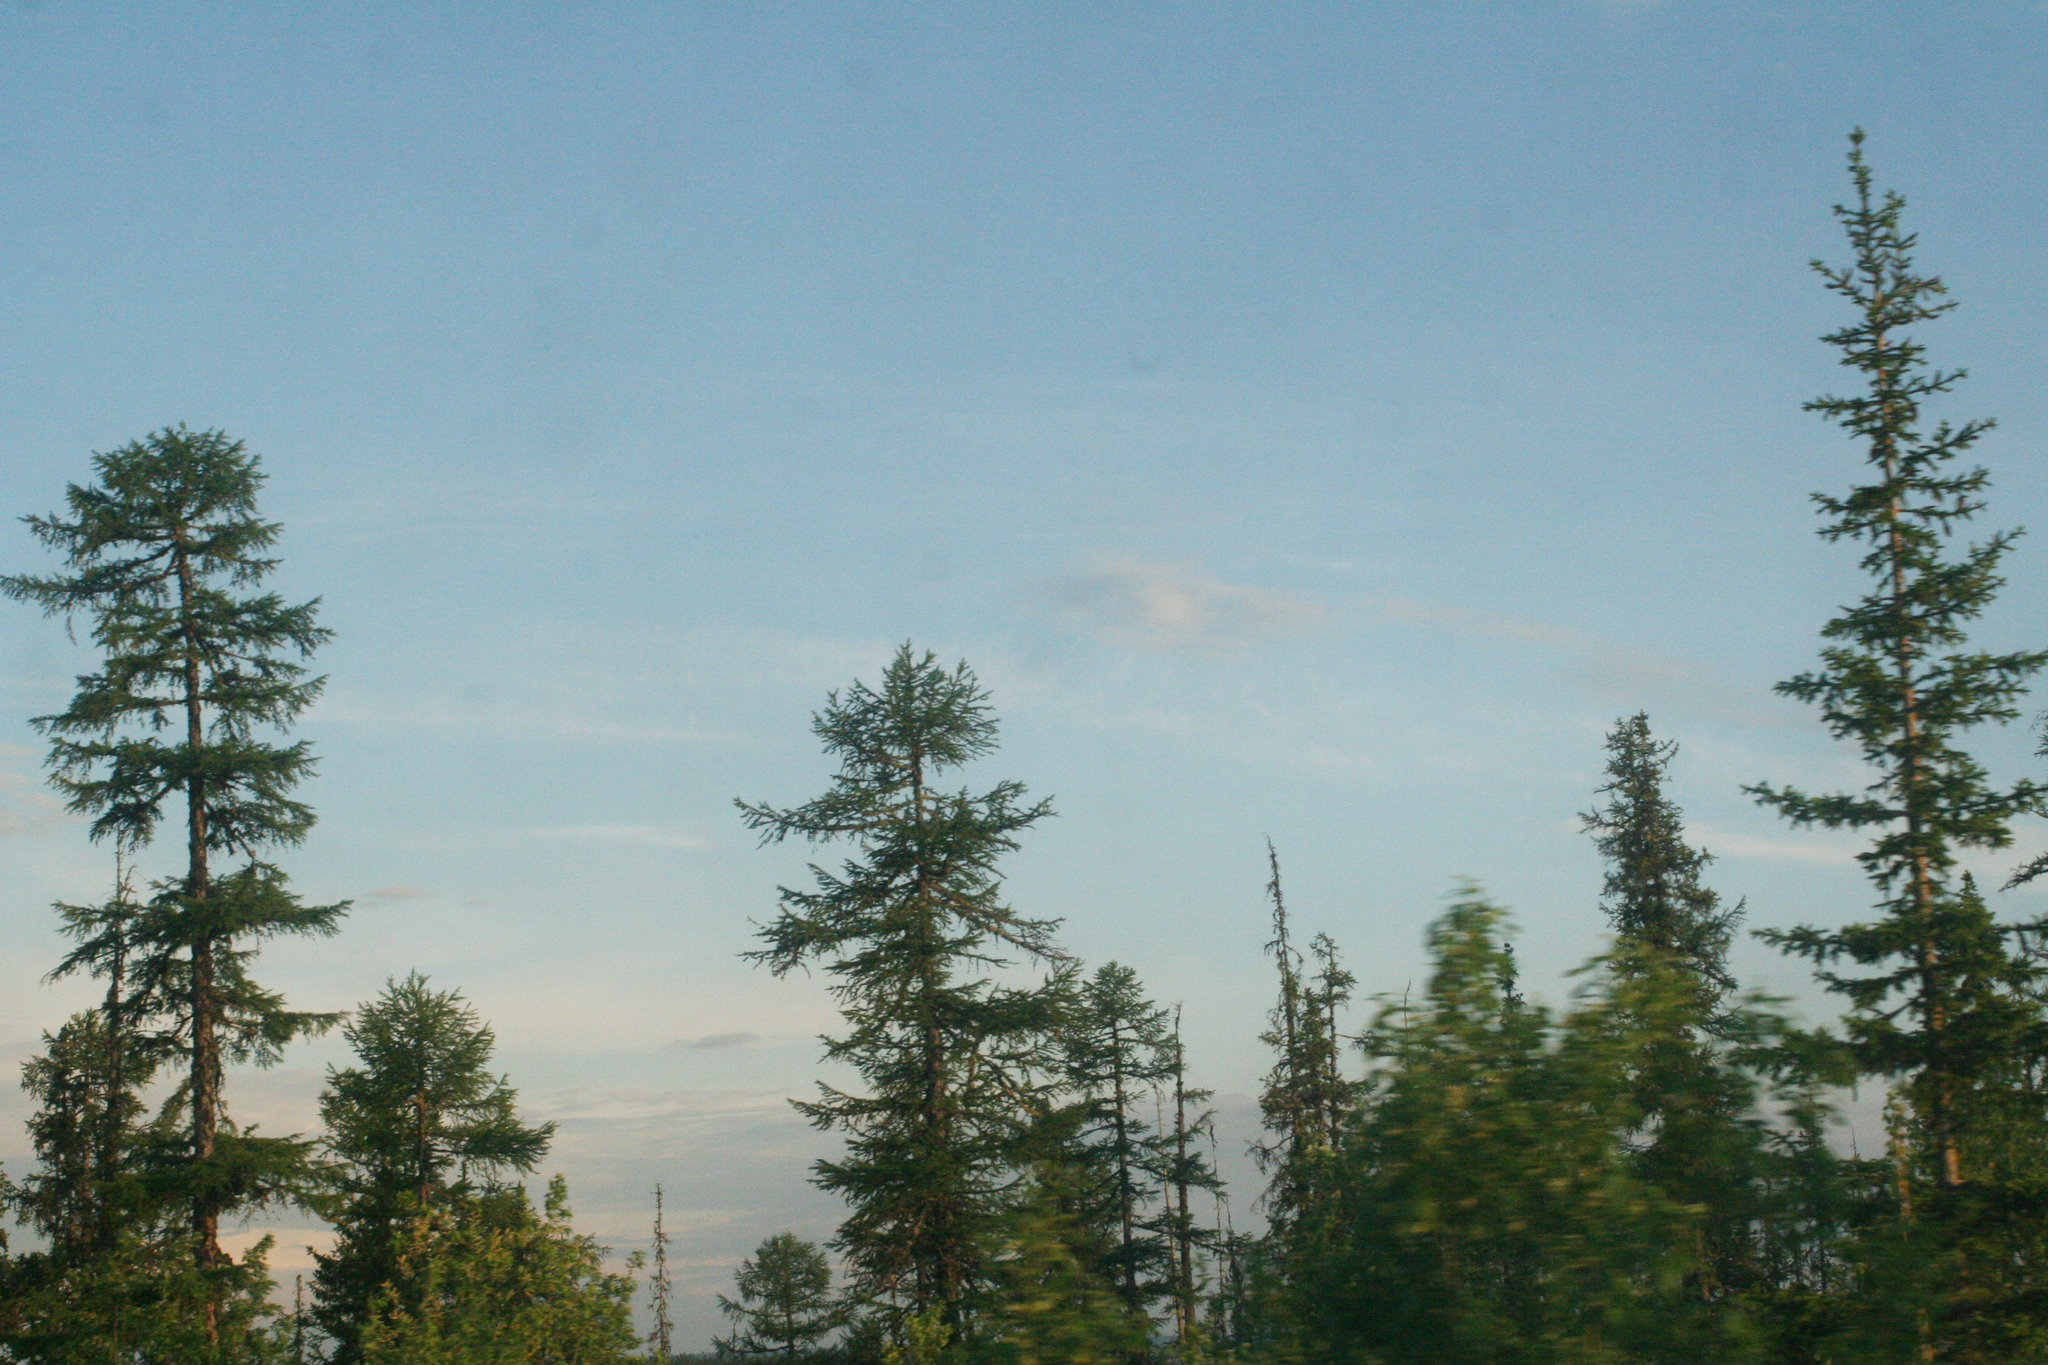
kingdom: Plantae
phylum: Tracheophyta
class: Pinopsida
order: Pinales
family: Pinaceae
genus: Larix
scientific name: Larix gmelinii
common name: Dahurian larch
